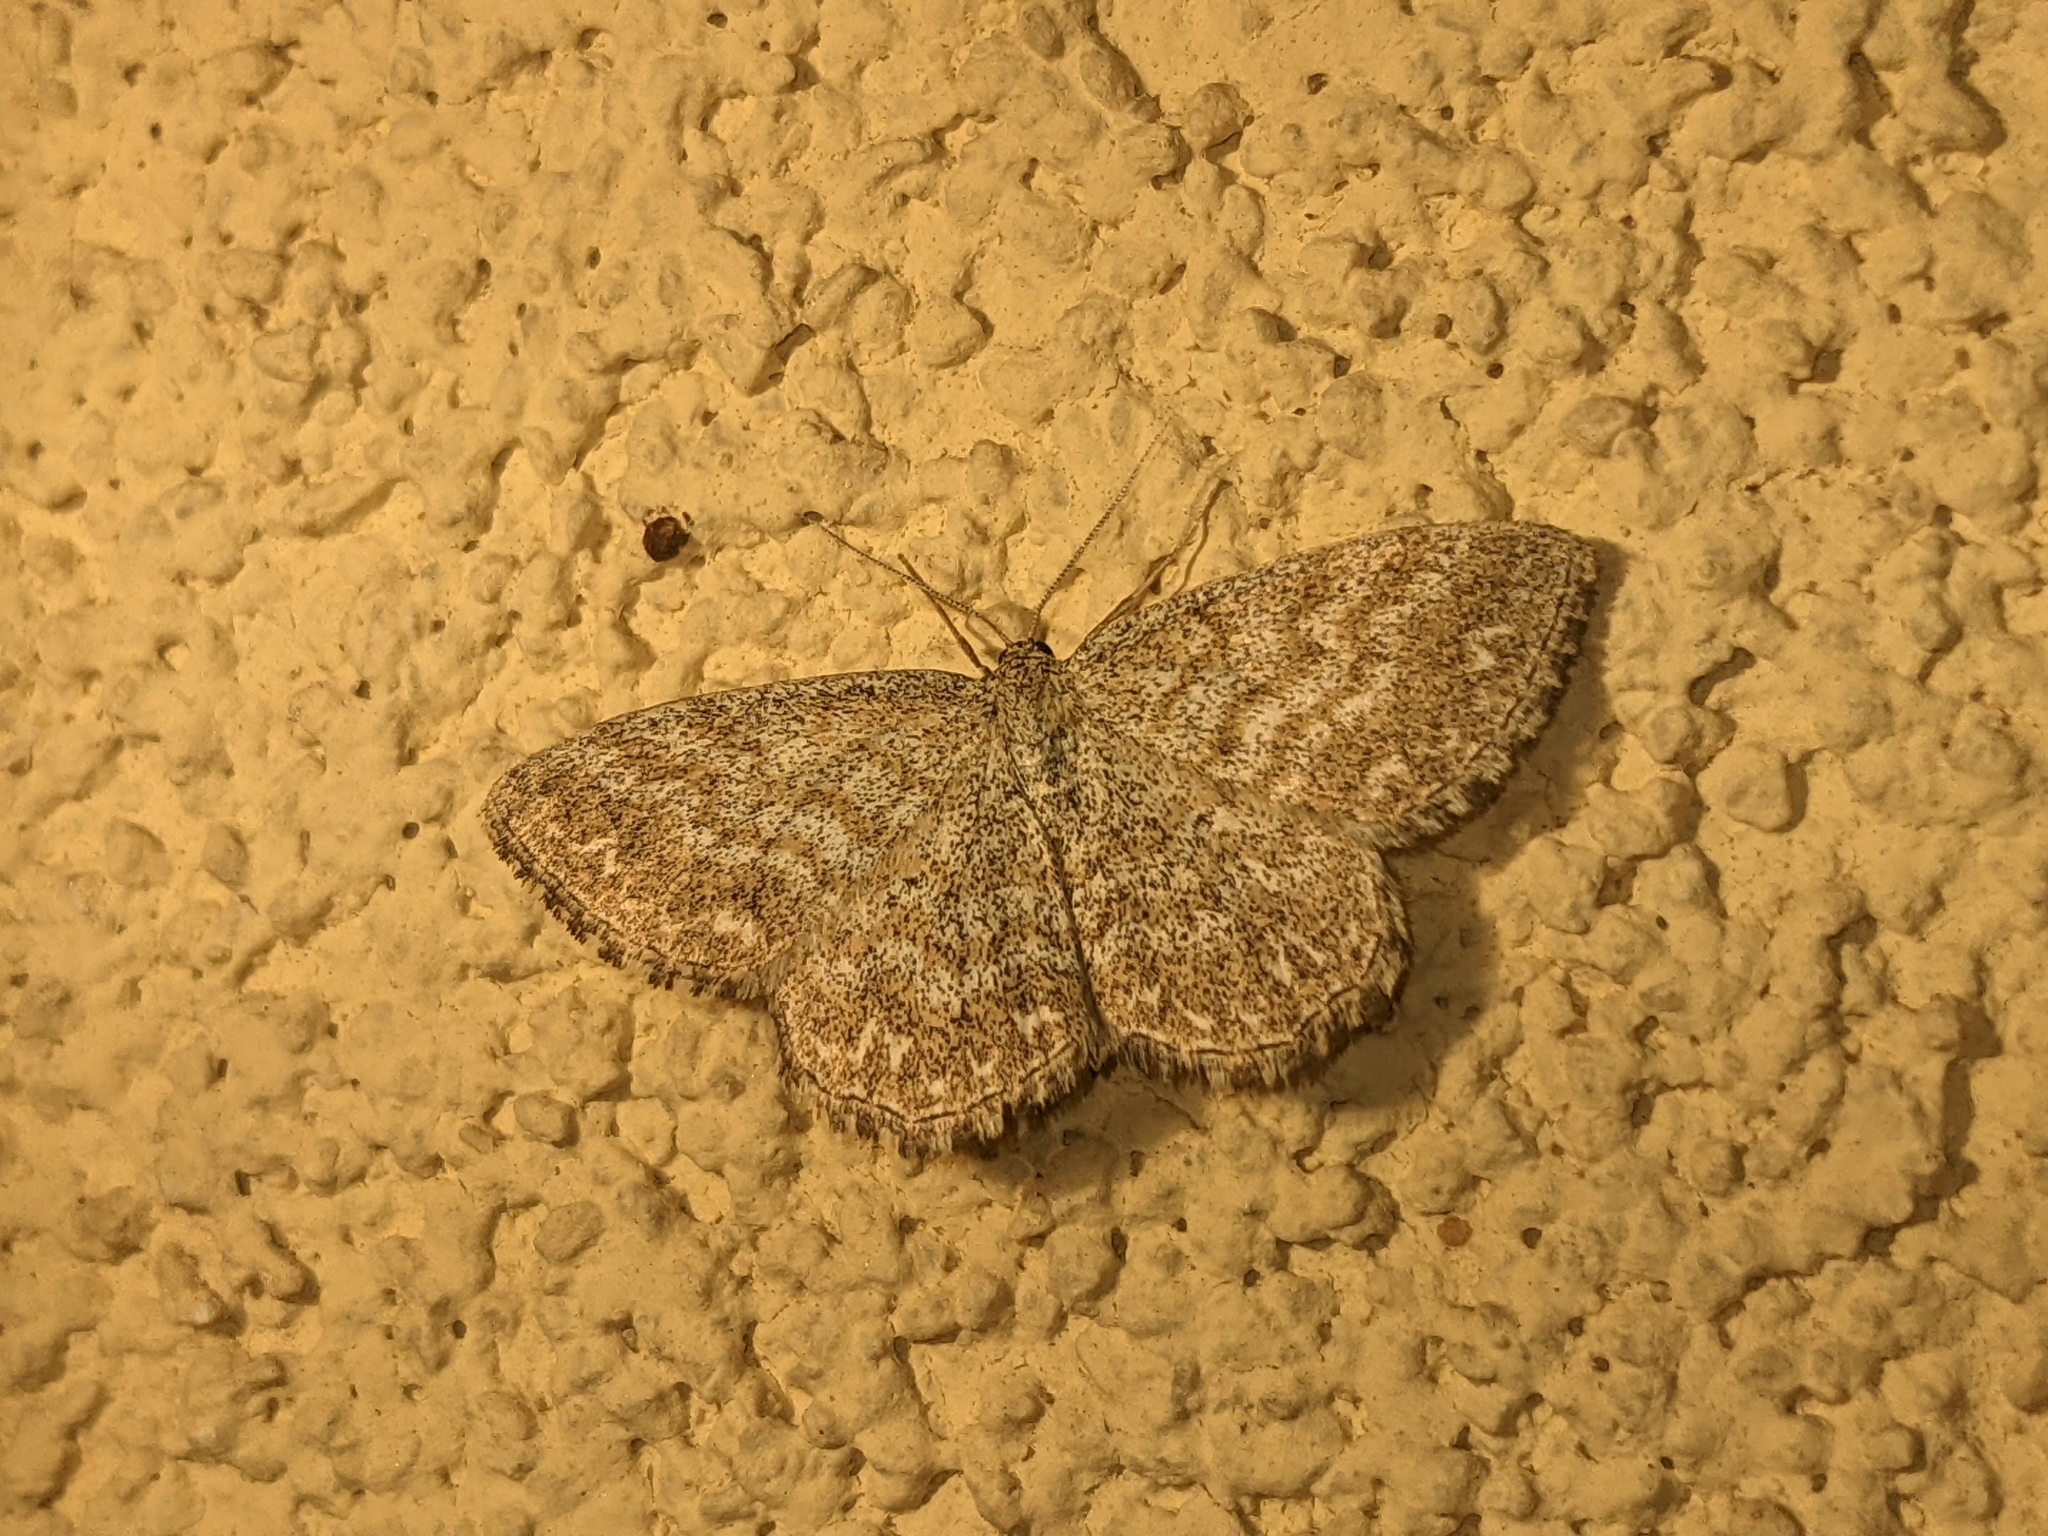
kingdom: Animalia
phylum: Arthropoda
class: Insecta
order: Lepidoptera
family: Geometridae
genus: Scopula
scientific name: Scopula immorata
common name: Lewes wave
